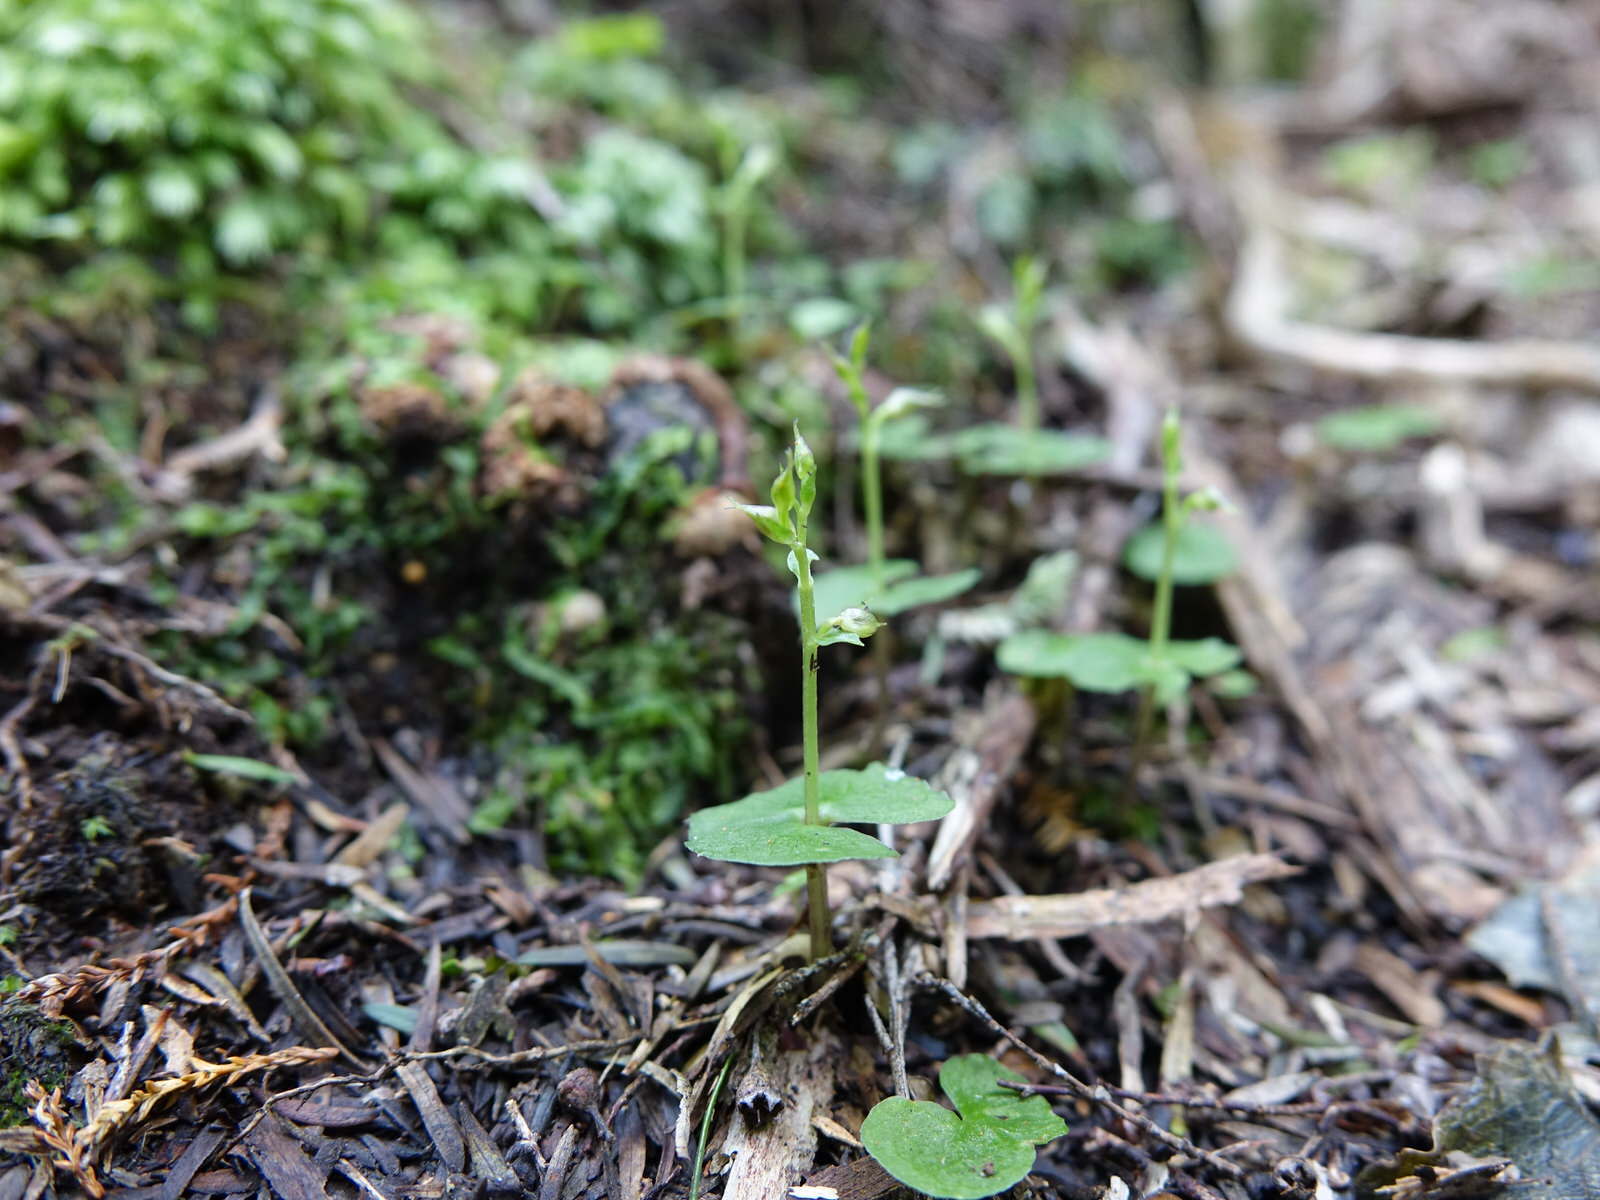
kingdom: Plantae
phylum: Tracheophyta
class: Liliopsida
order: Asparagales
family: Orchidaceae
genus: Acianthus
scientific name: Acianthus sinclairii
